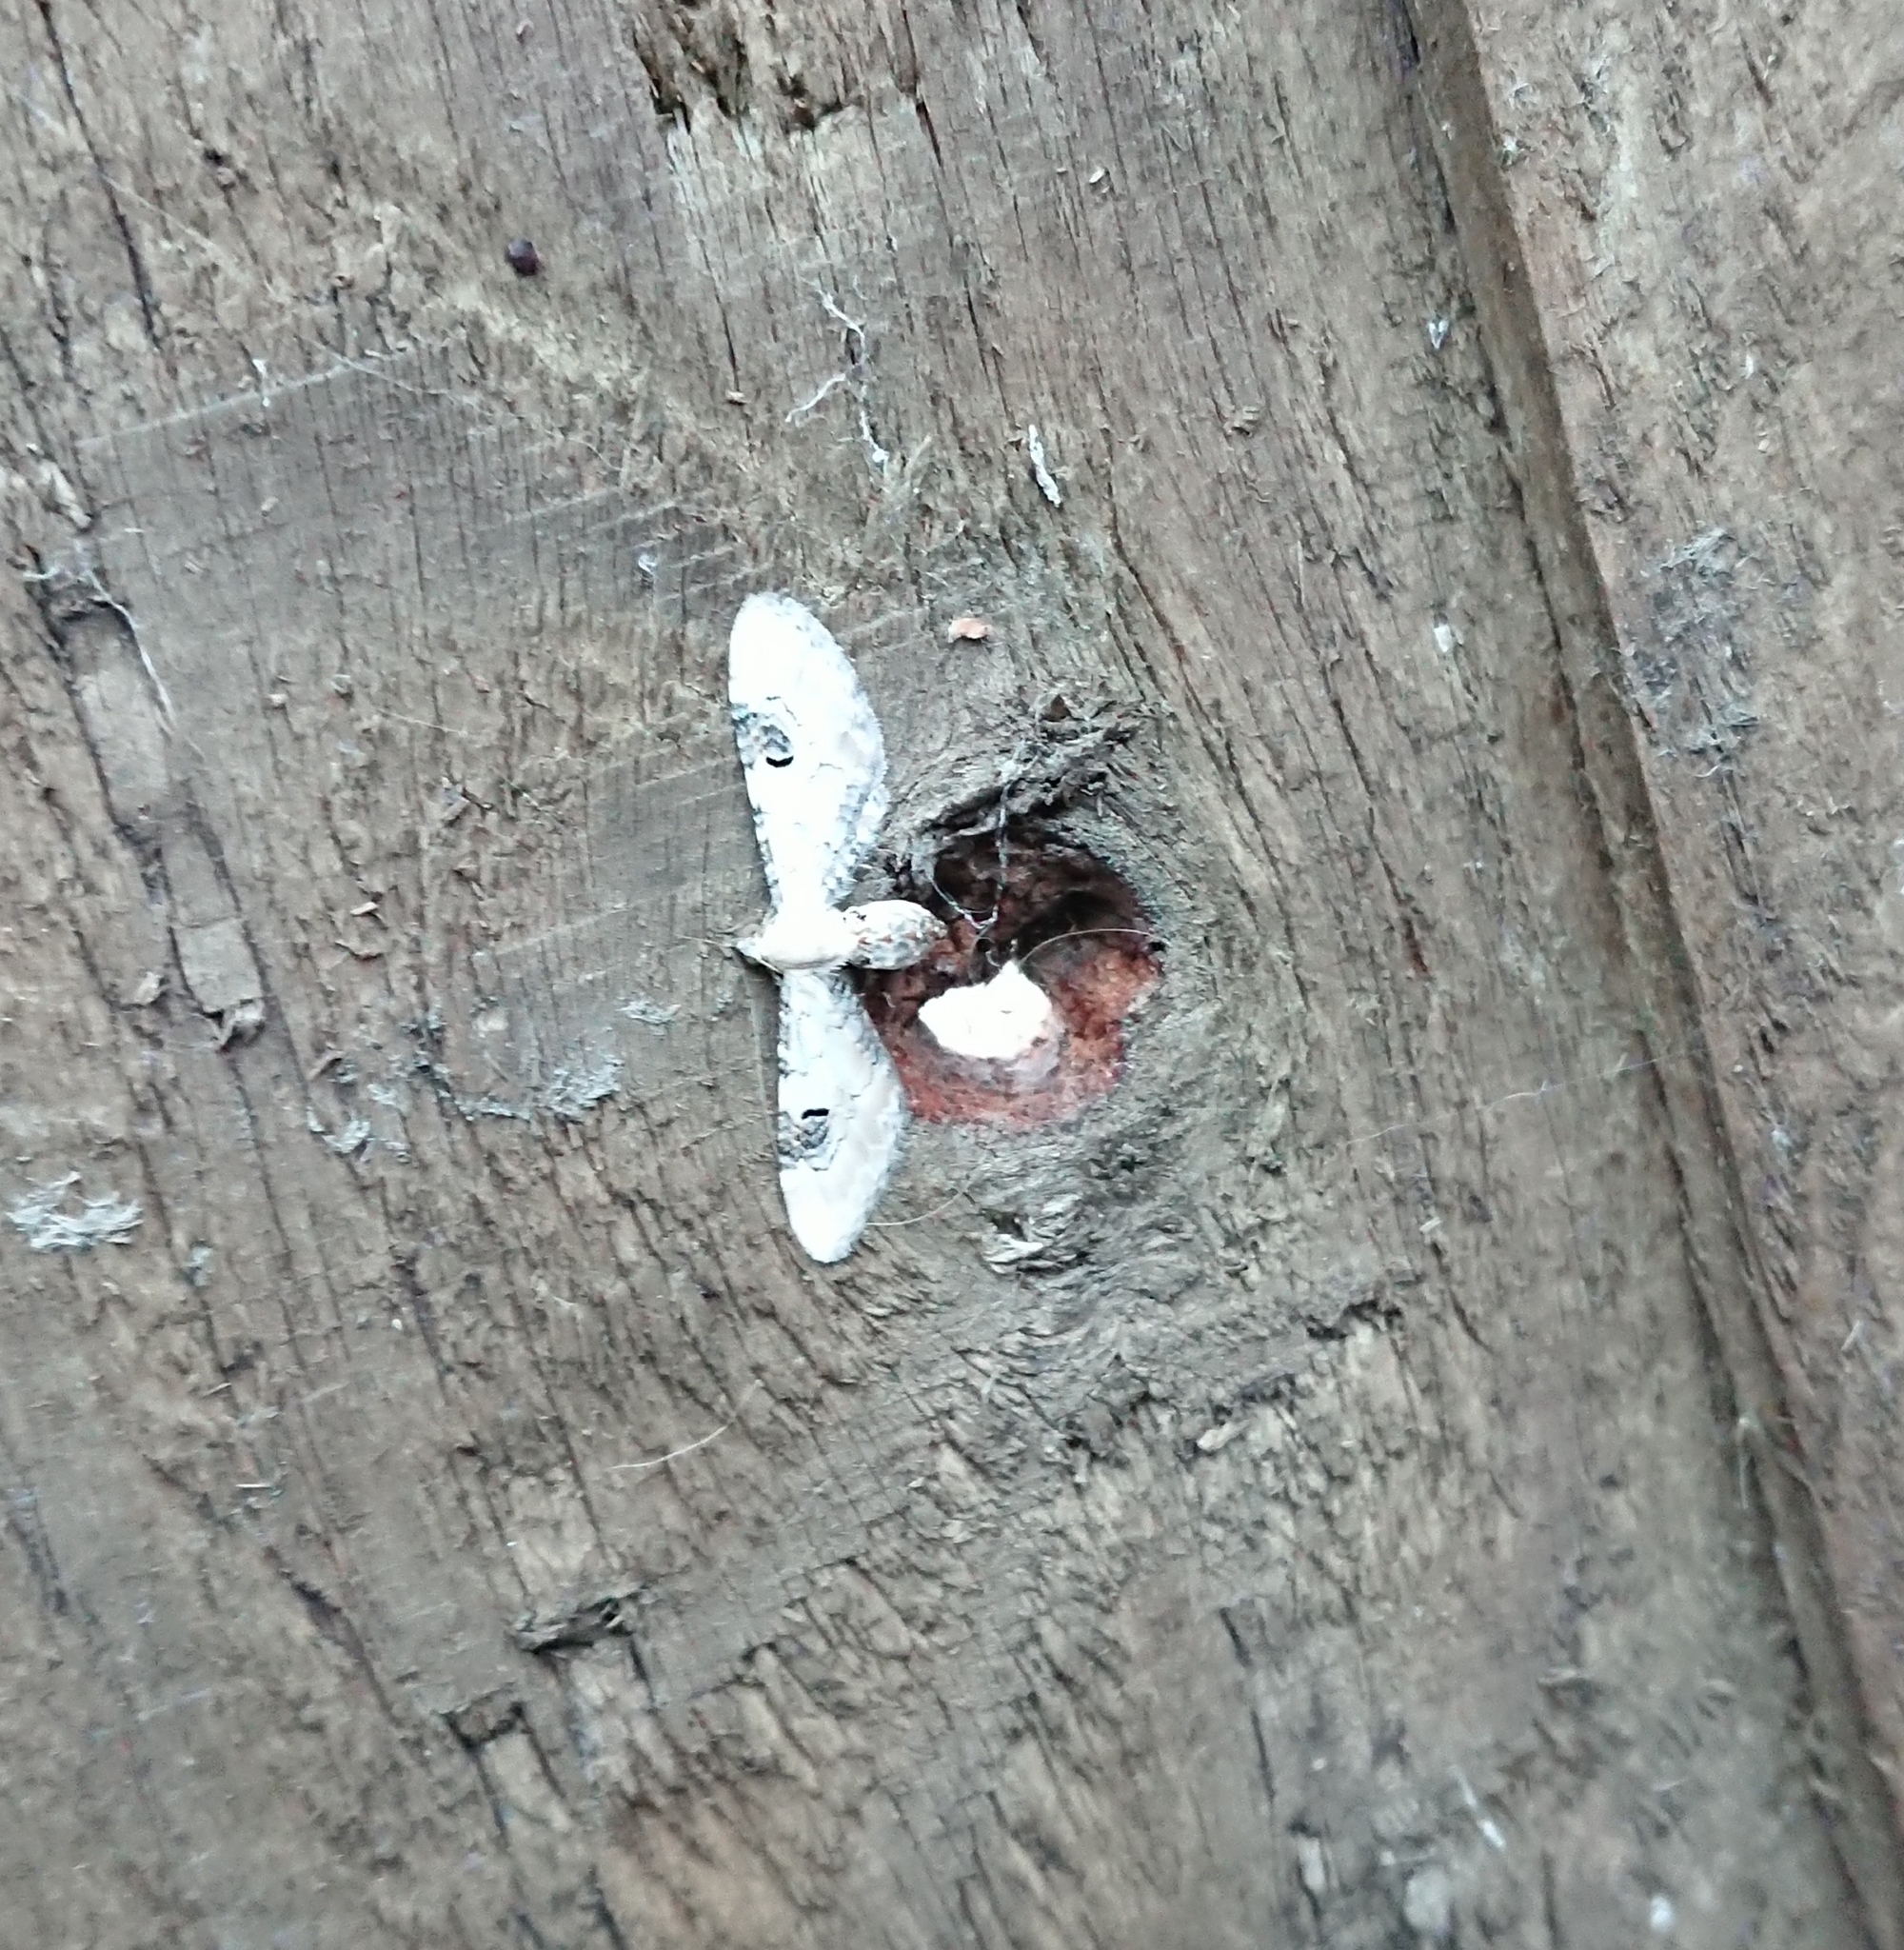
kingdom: Animalia
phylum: Arthropoda
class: Insecta
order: Lepidoptera
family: Geometridae
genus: Eupithecia
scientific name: Eupithecia centaureata
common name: Lime-speck pug
